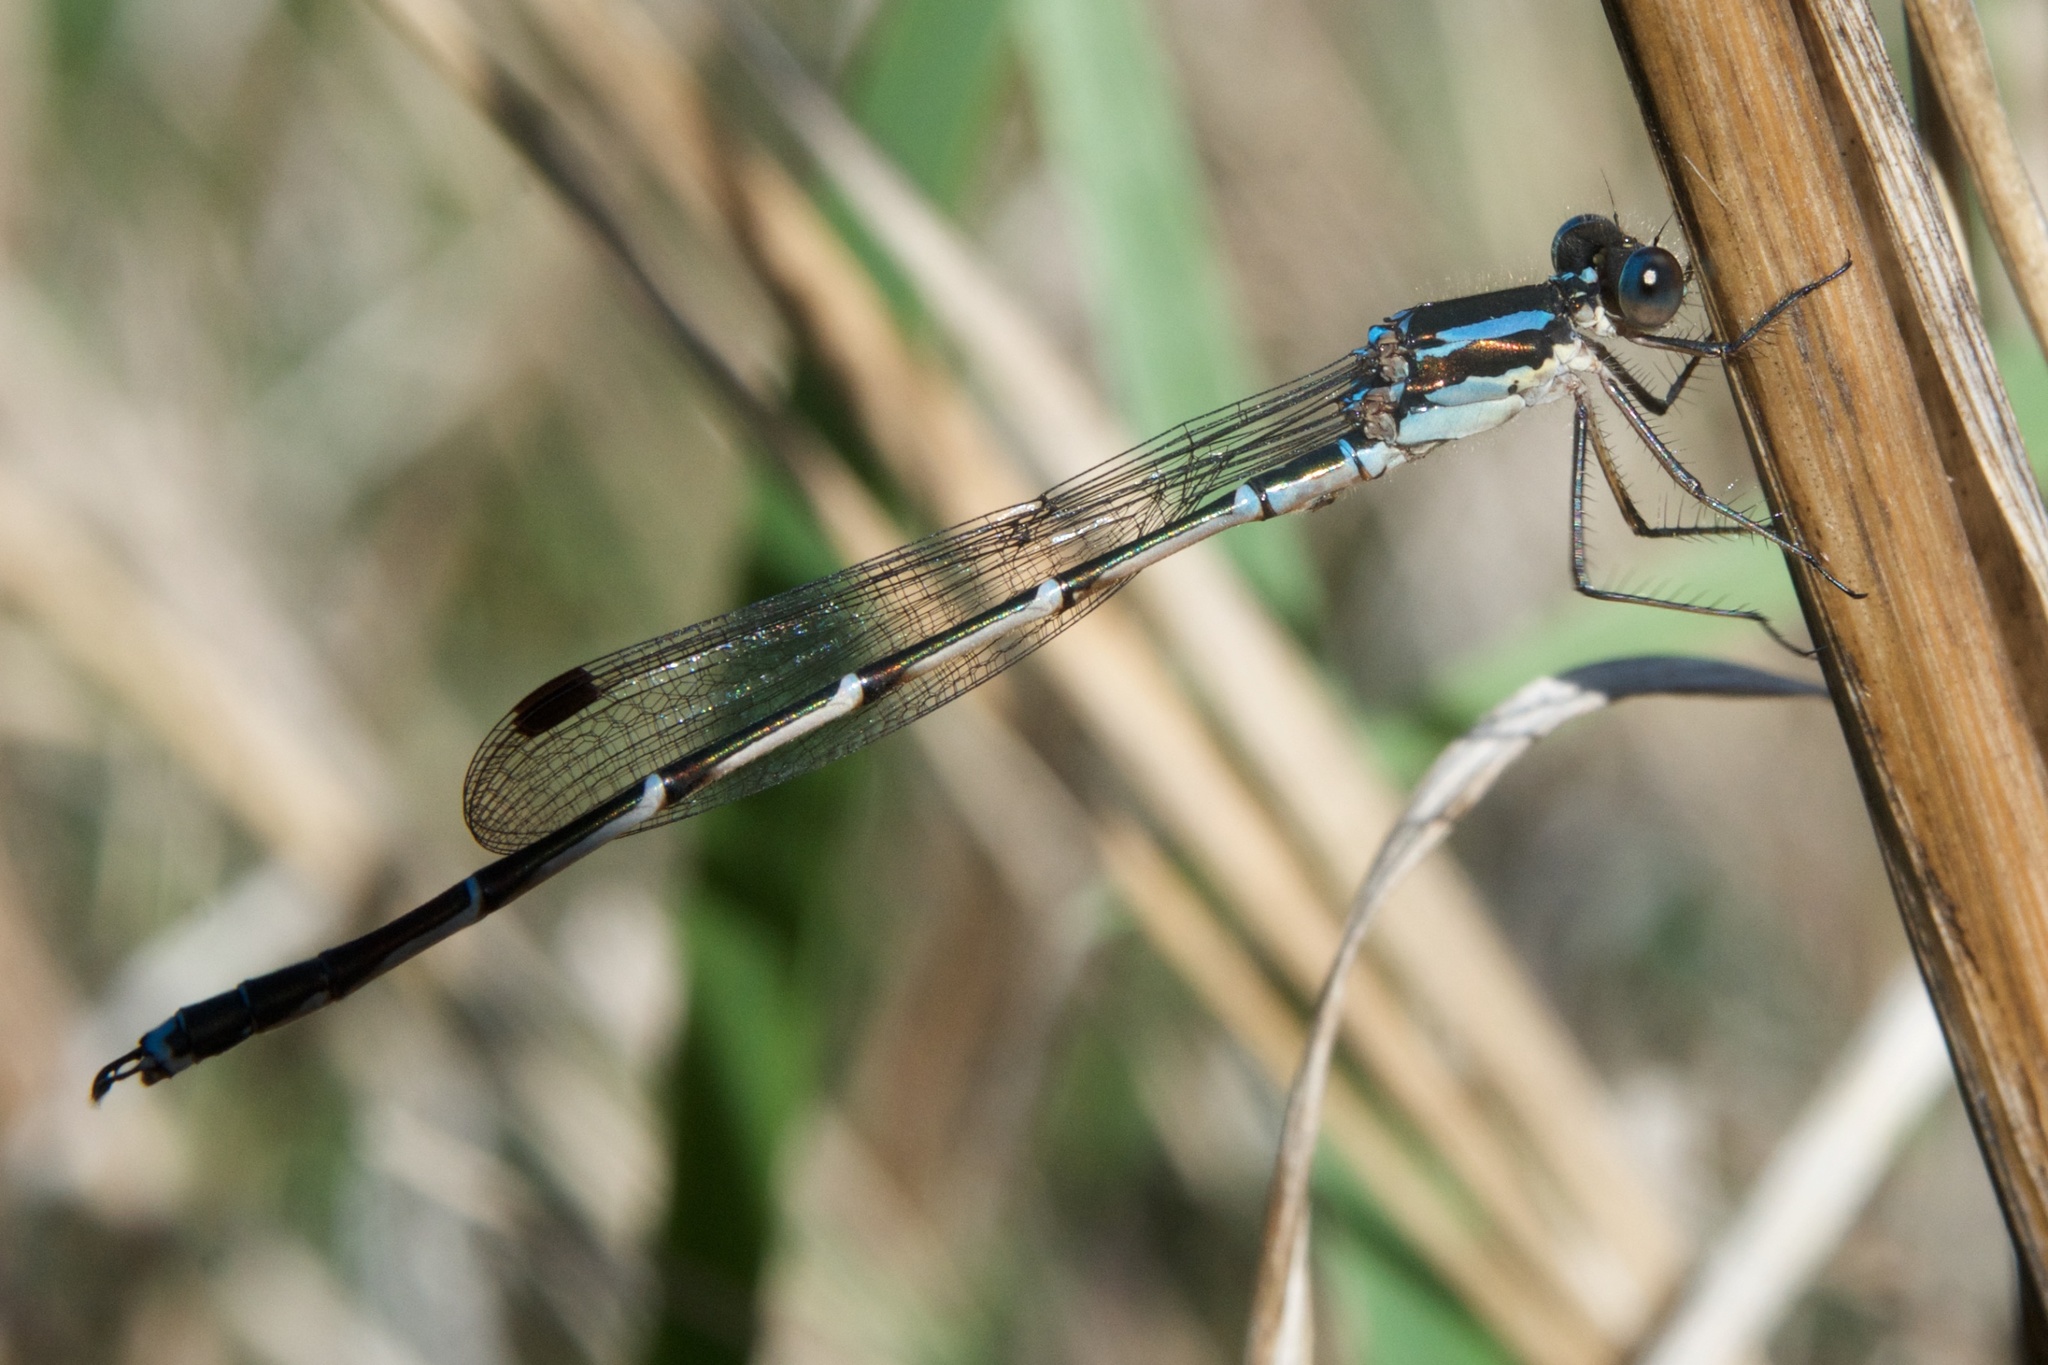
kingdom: Animalia
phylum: Arthropoda
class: Insecta
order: Odonata
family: Lestidae
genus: Austrolestes
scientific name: Austrolestes colensonis
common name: Blue damselfly
